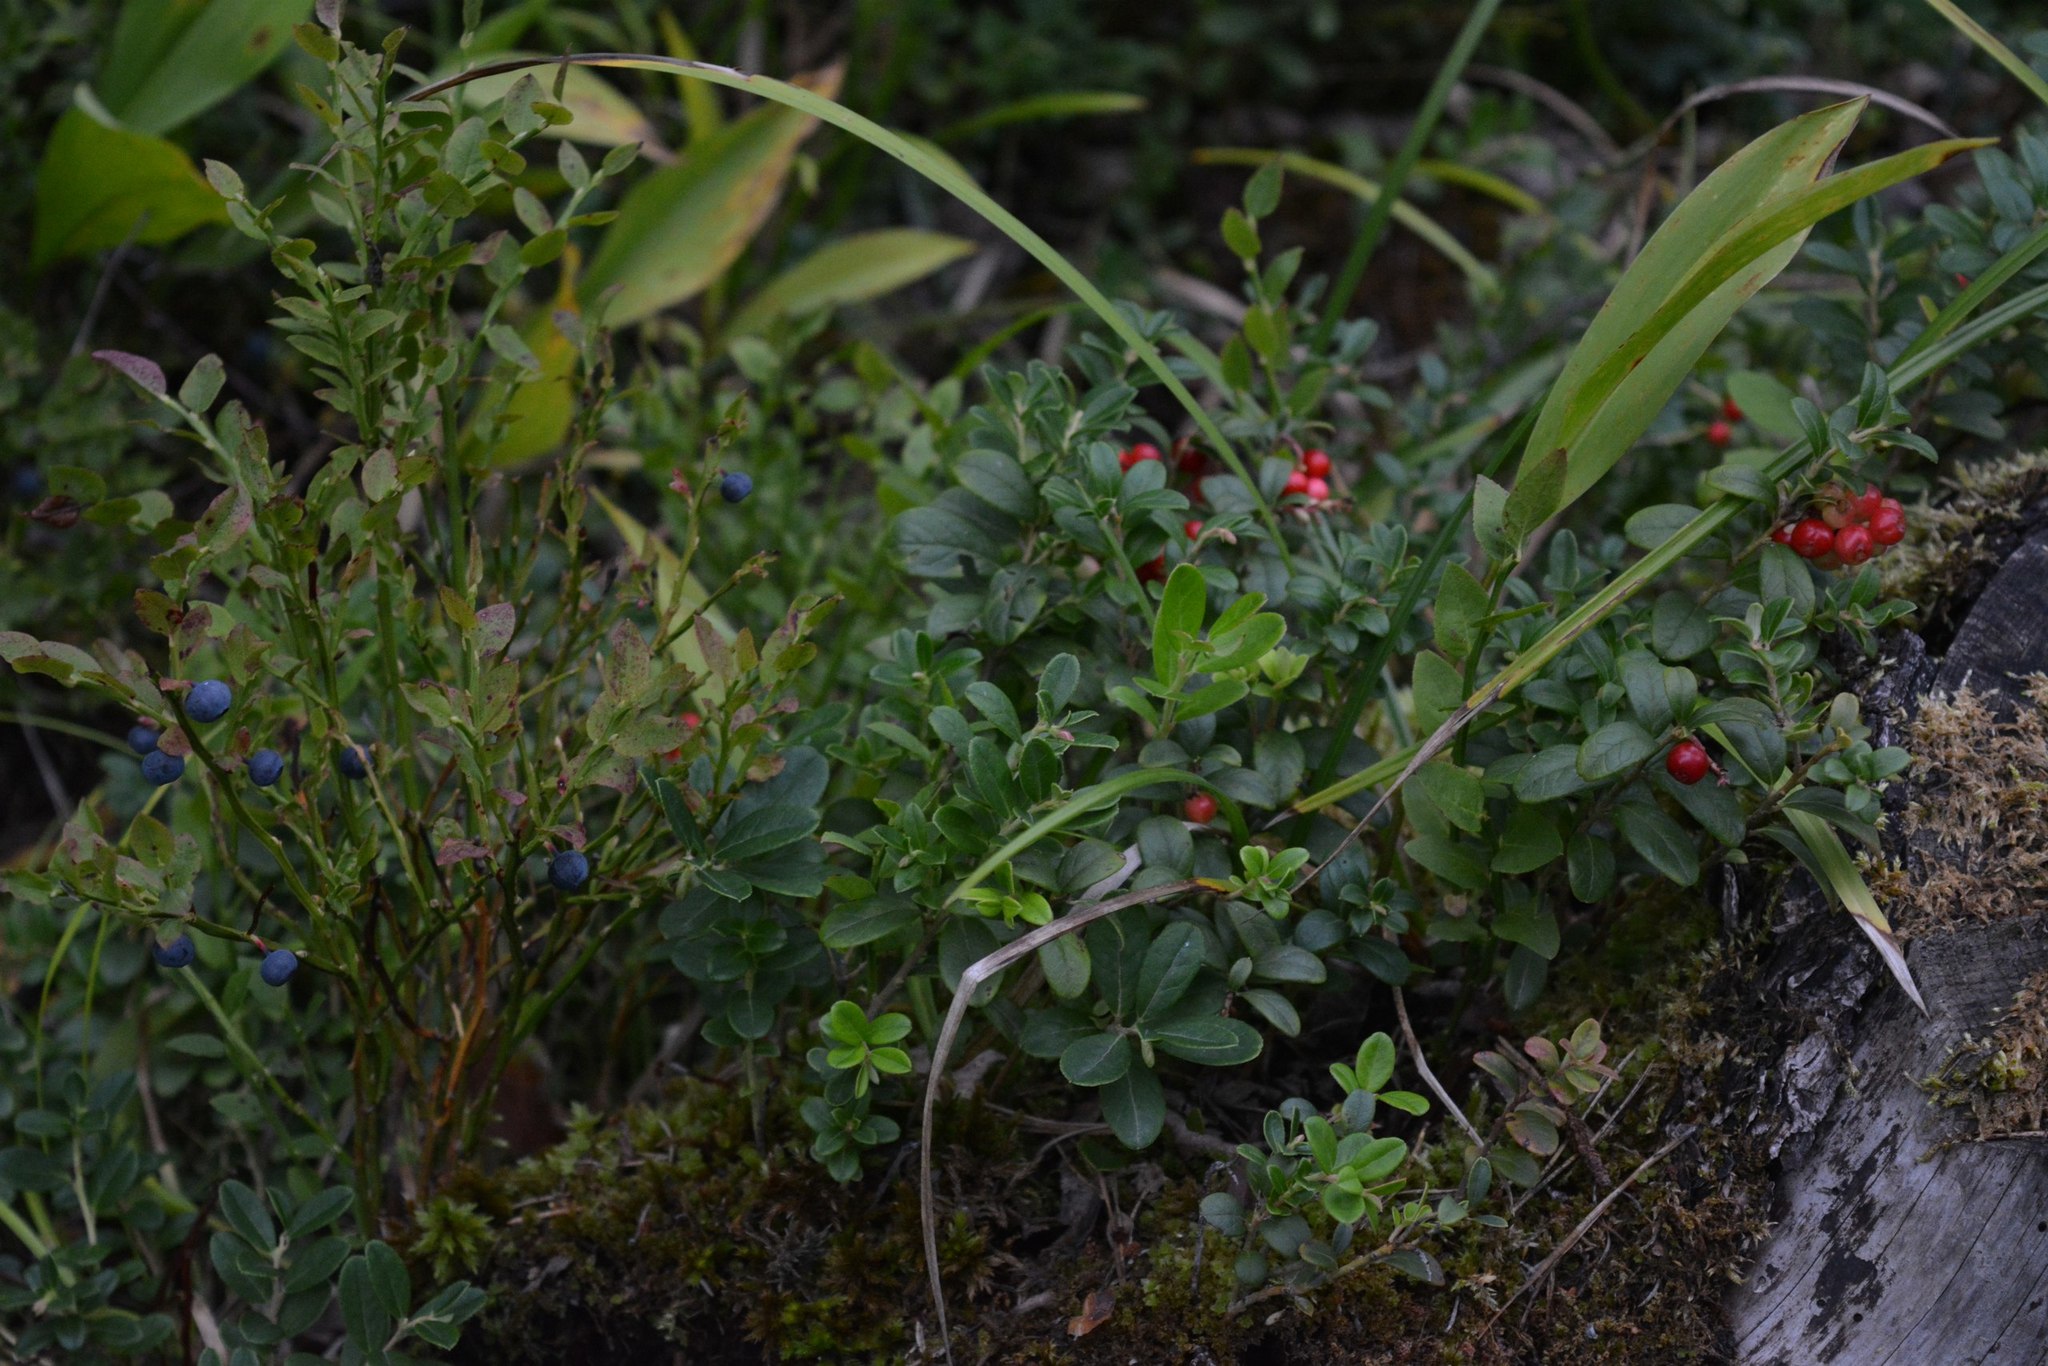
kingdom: Plantae
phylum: Tracheophyta
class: Magnoliopsida
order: Ericales
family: Ericaceae
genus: Vaccinium
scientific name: Vaccinium vitis-idaea
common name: Cowberry
